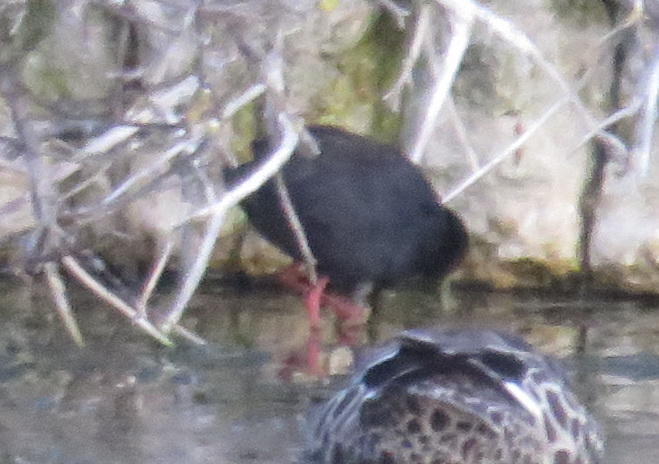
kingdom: Animalia
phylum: Chordata
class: Aves
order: Gruiformes
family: Rallidae
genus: Amaurornis
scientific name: Amaurornis flavirostra
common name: Black crake
